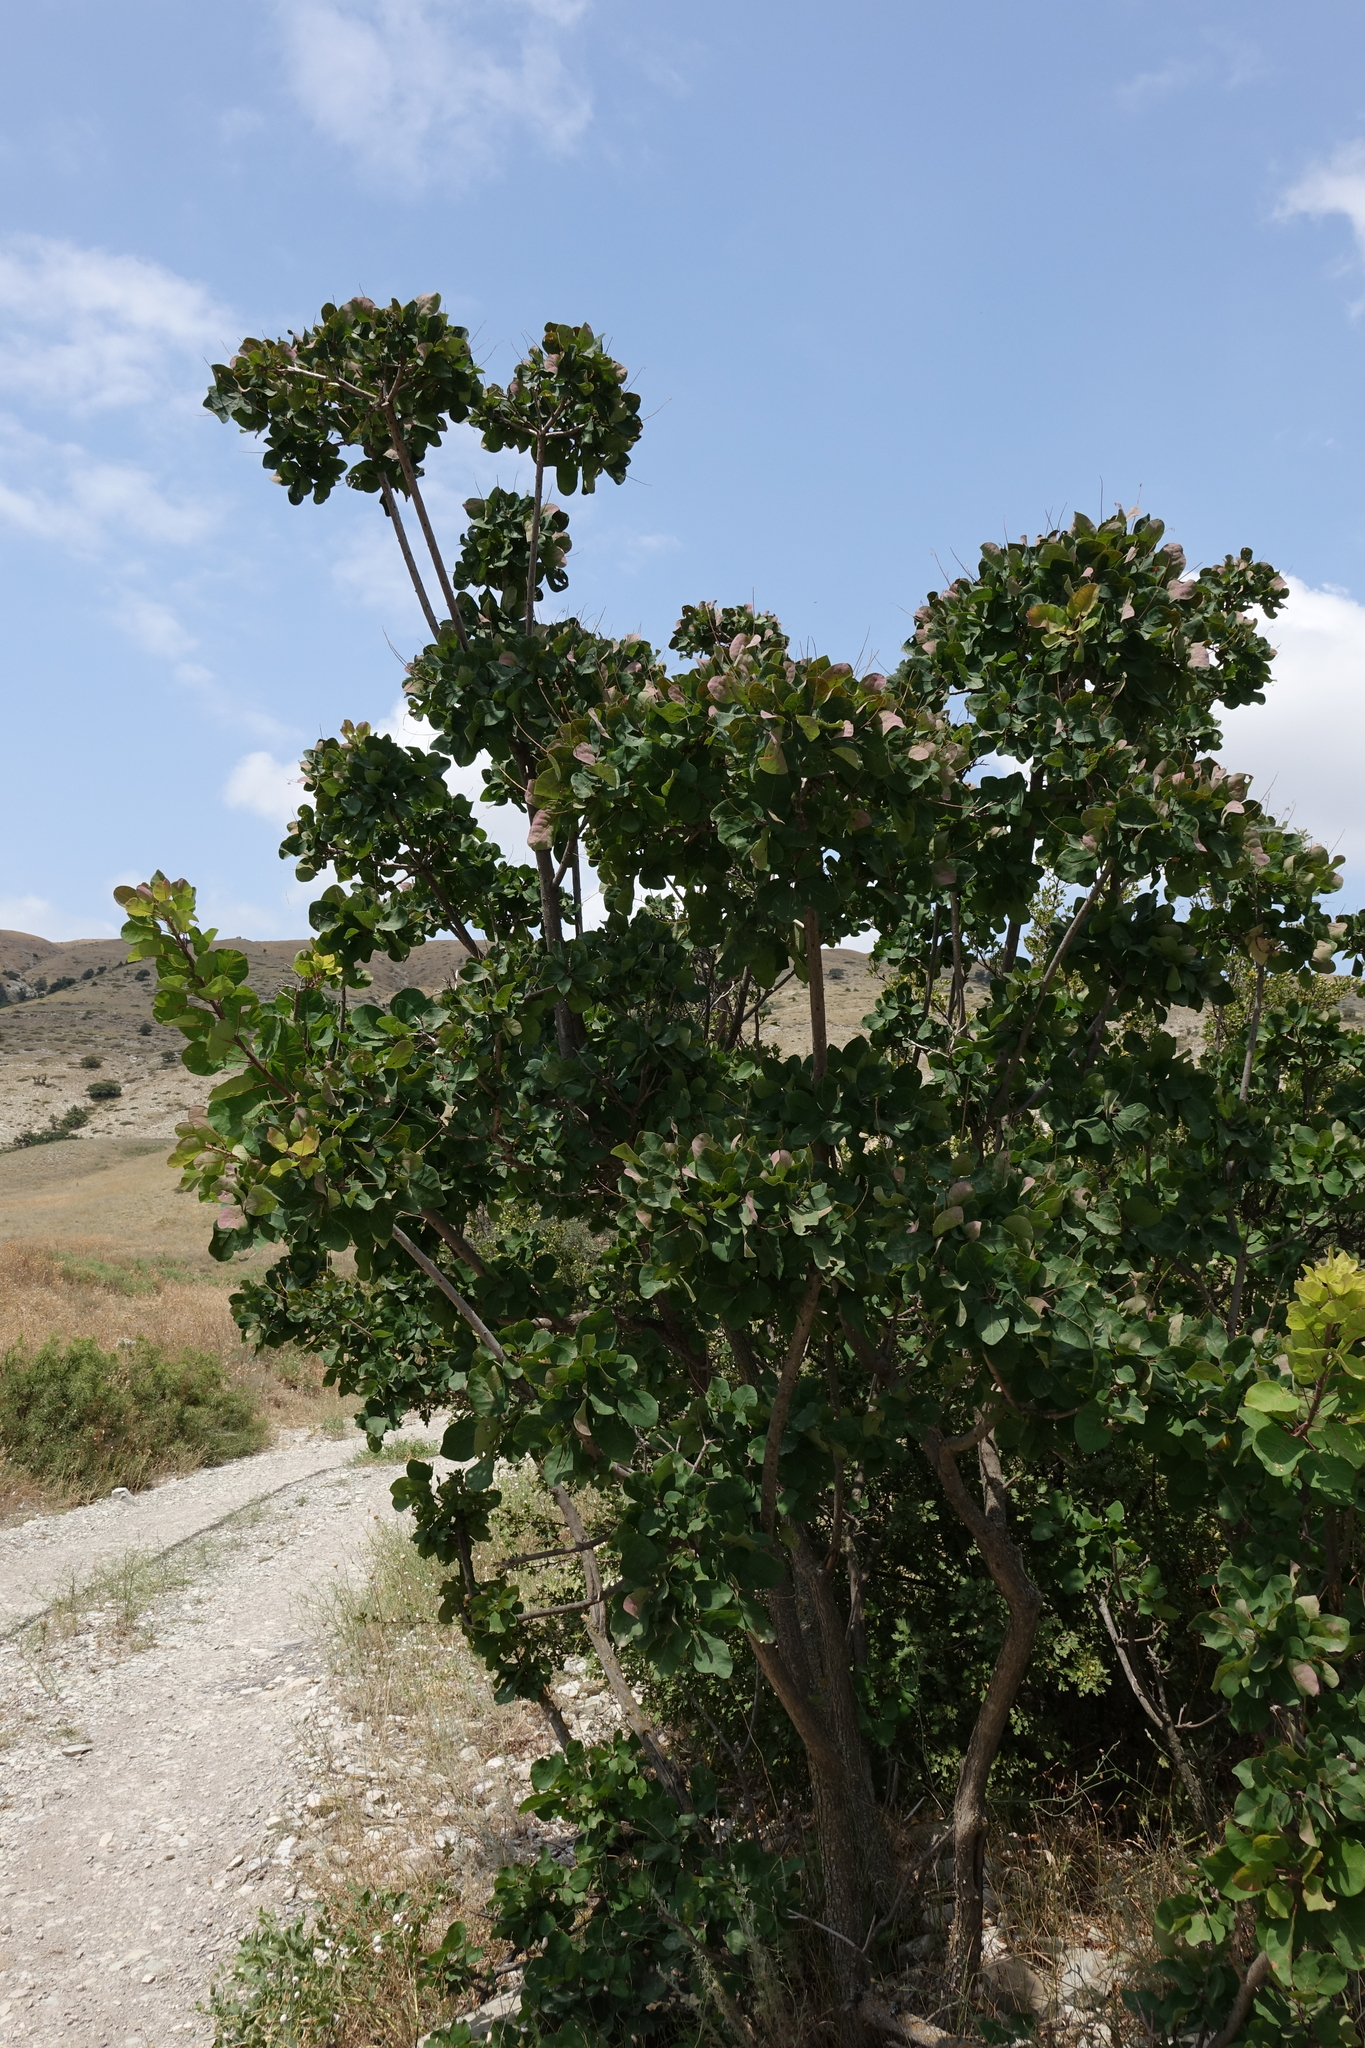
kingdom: Plantae
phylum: Tracheophyta
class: Magnoliopsida
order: Sapindales
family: Anacardiaceae
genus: Cotinus
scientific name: Cotinus coggygria
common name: Smoke-tree
